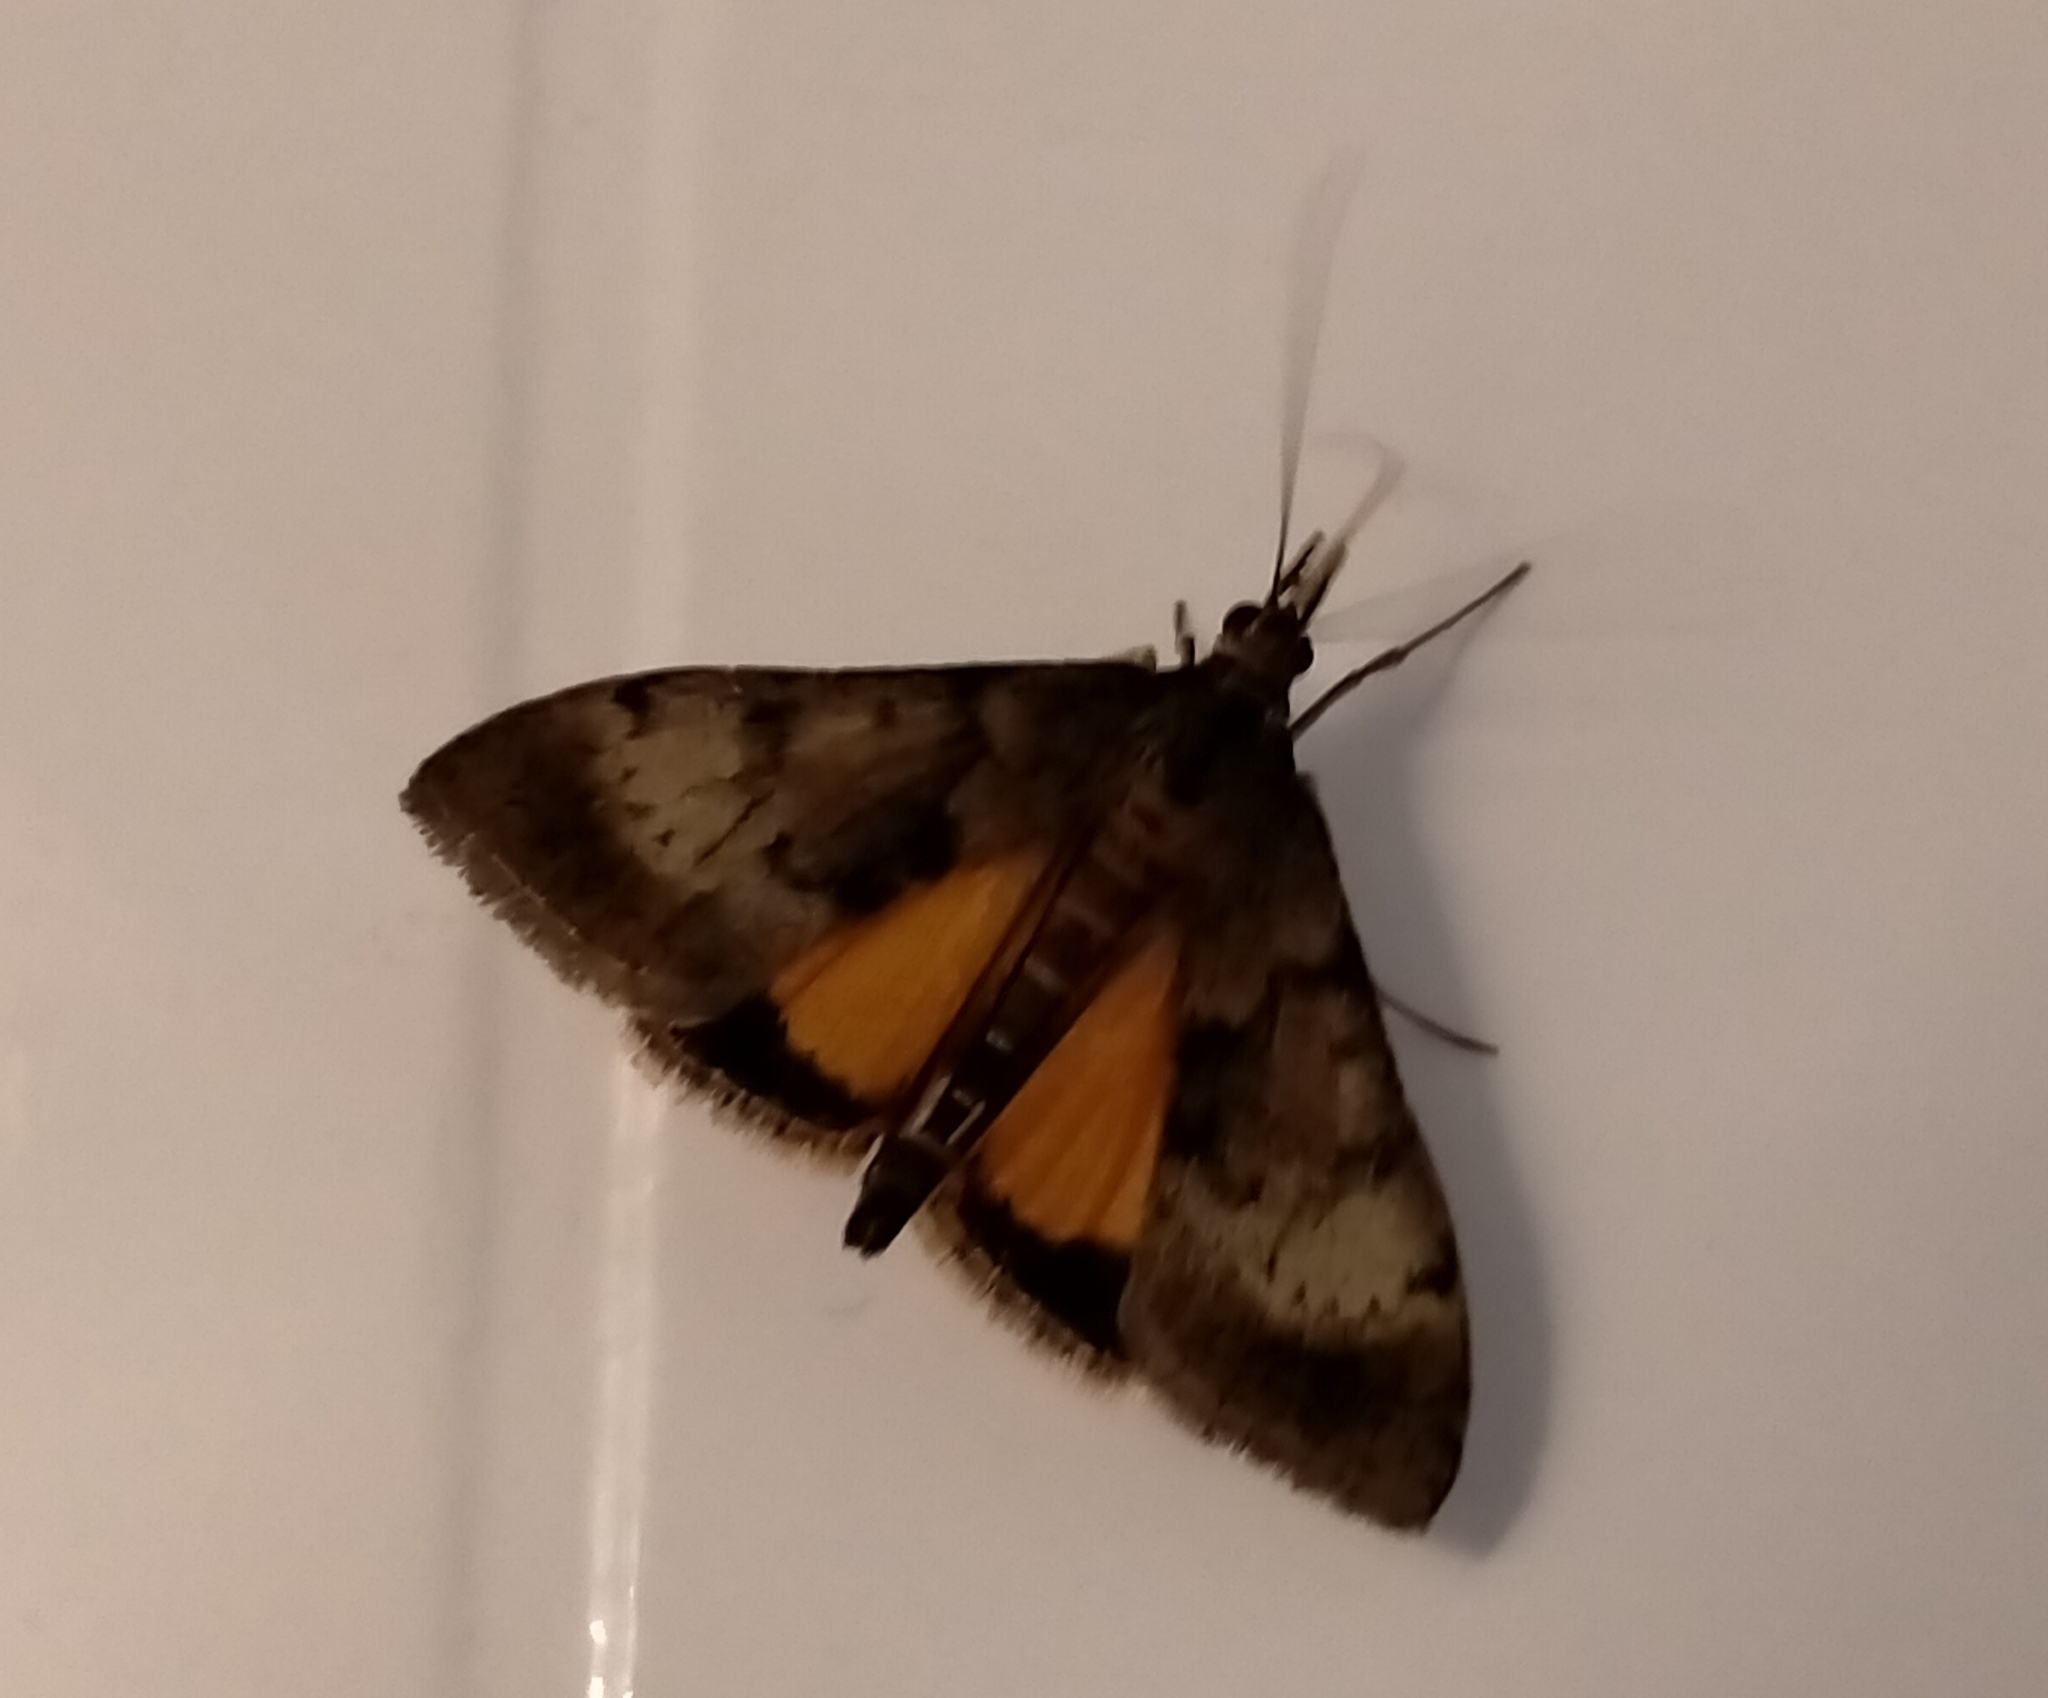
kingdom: Animalia
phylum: Arthropoda
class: Insecta
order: Lepidoptera
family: Crambidae
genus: Uresiphita
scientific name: Uresiphita
